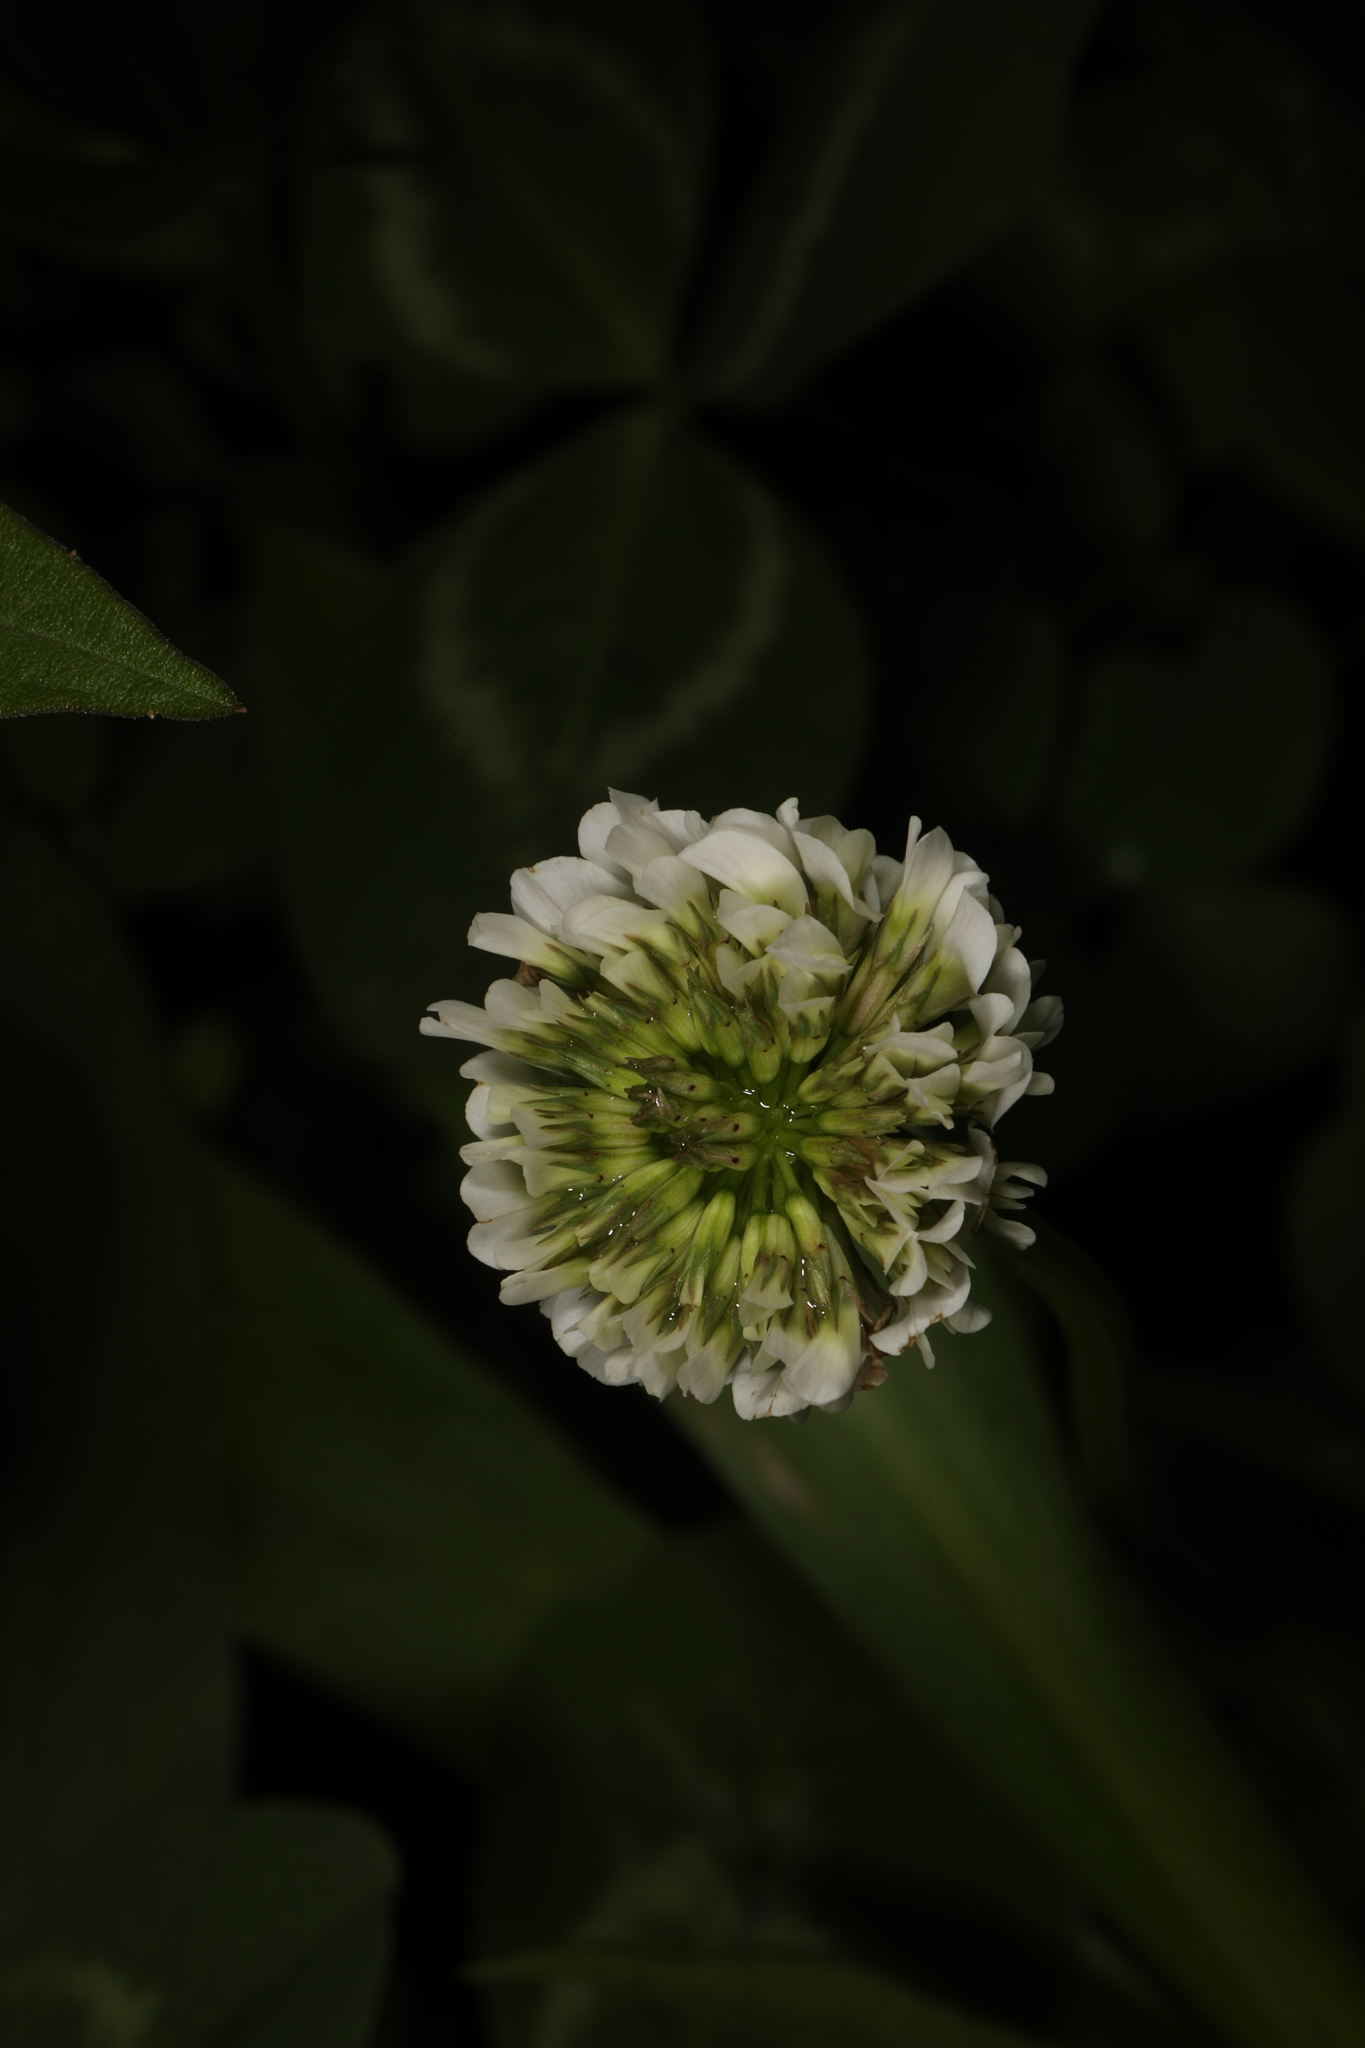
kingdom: Plantae
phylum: Tracheophyta
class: Magnoliopsida
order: Fabales
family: Fabaceae
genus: Trifolium
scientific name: Trifolium repens
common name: White clover
